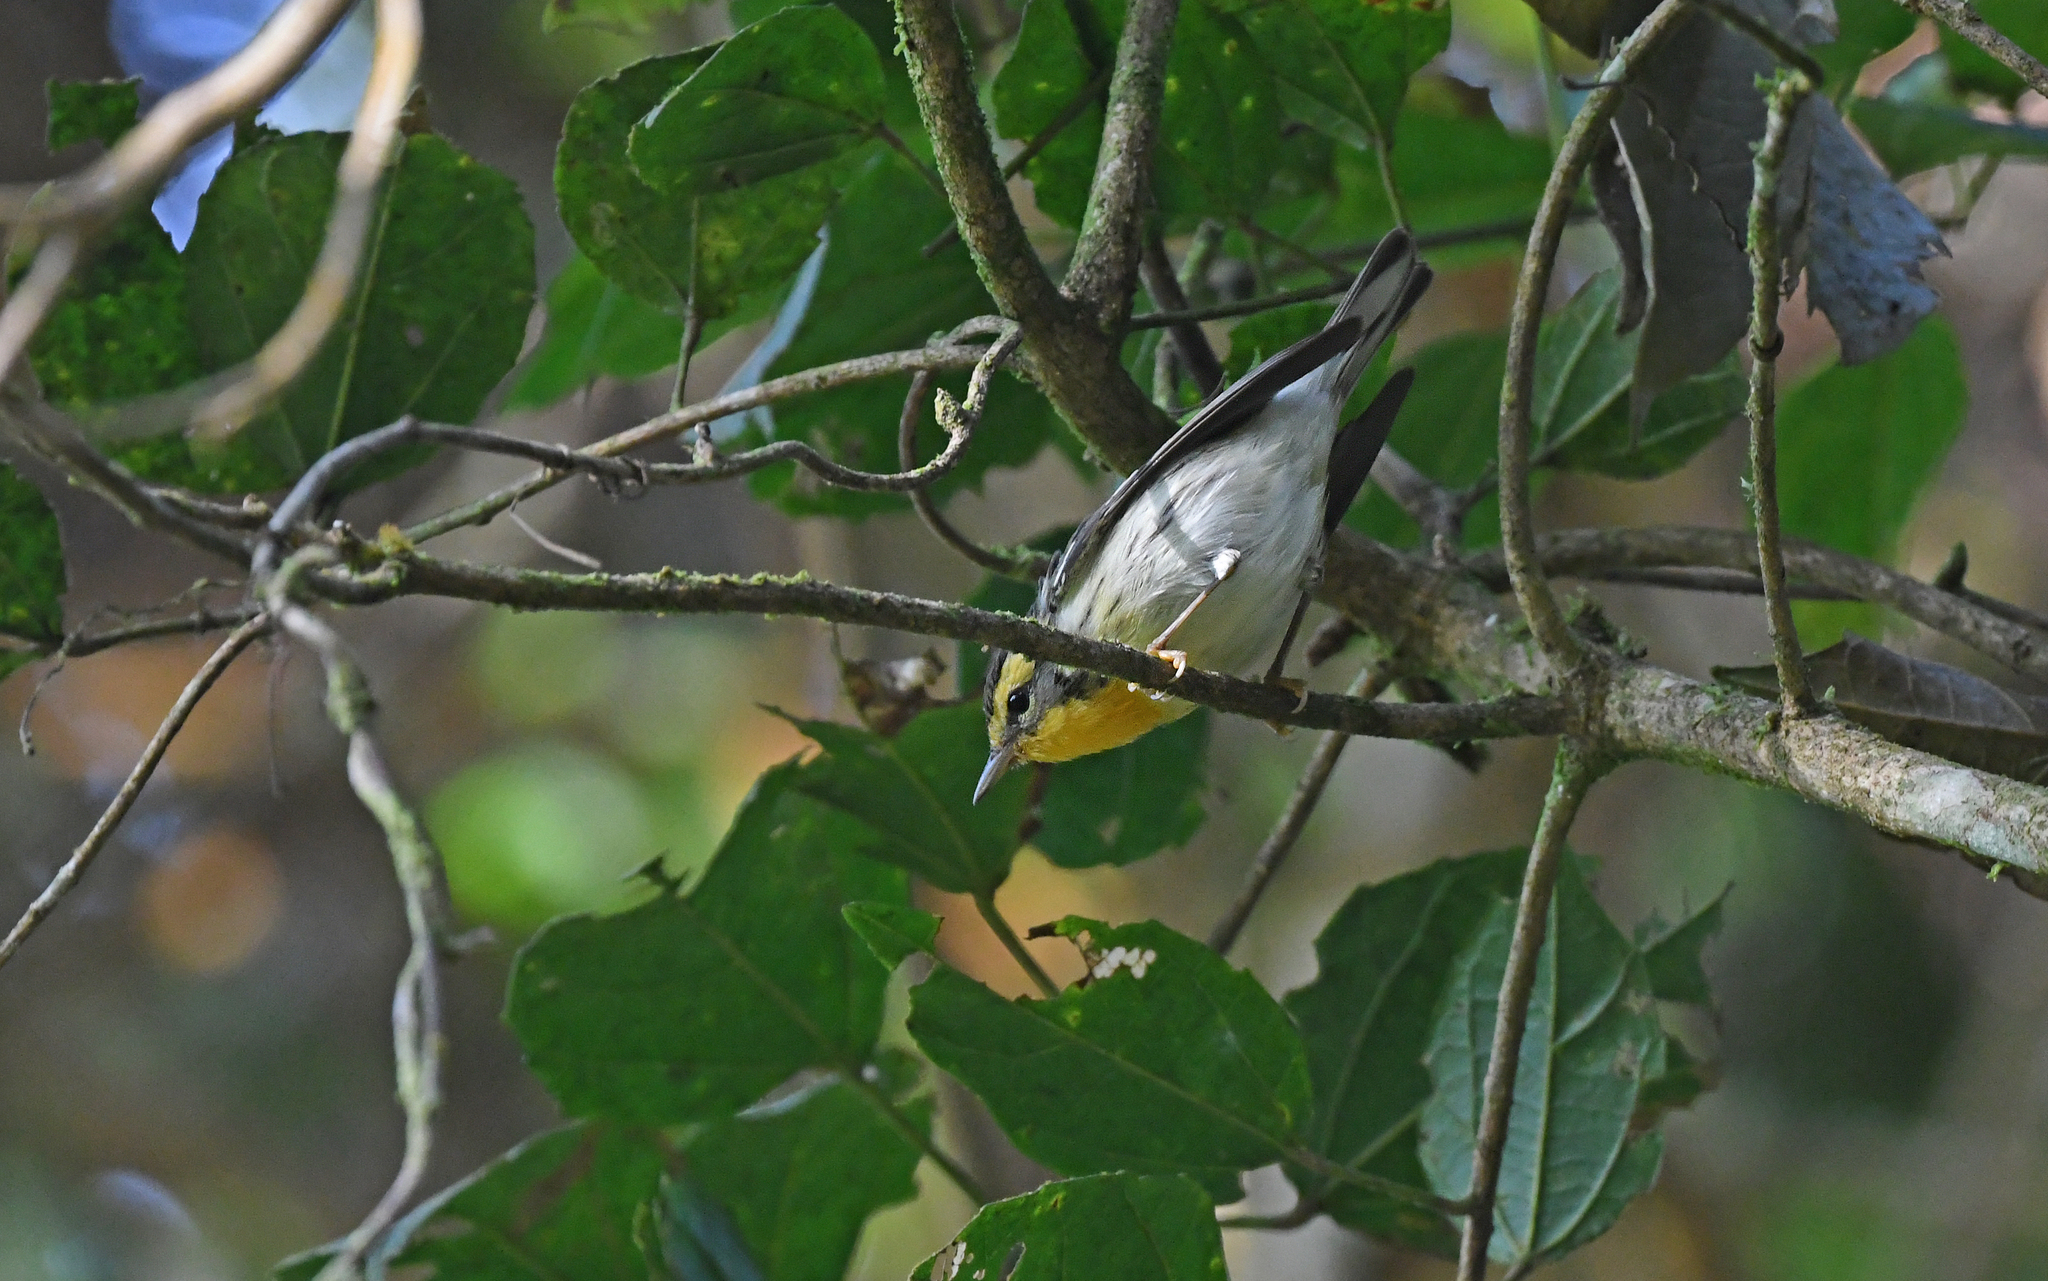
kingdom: Animalia
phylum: Chordata
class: Aves
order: Passeriformes
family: Parulidae
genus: Setophaga
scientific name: Setophaga fusca
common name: Blackburnian warbler
